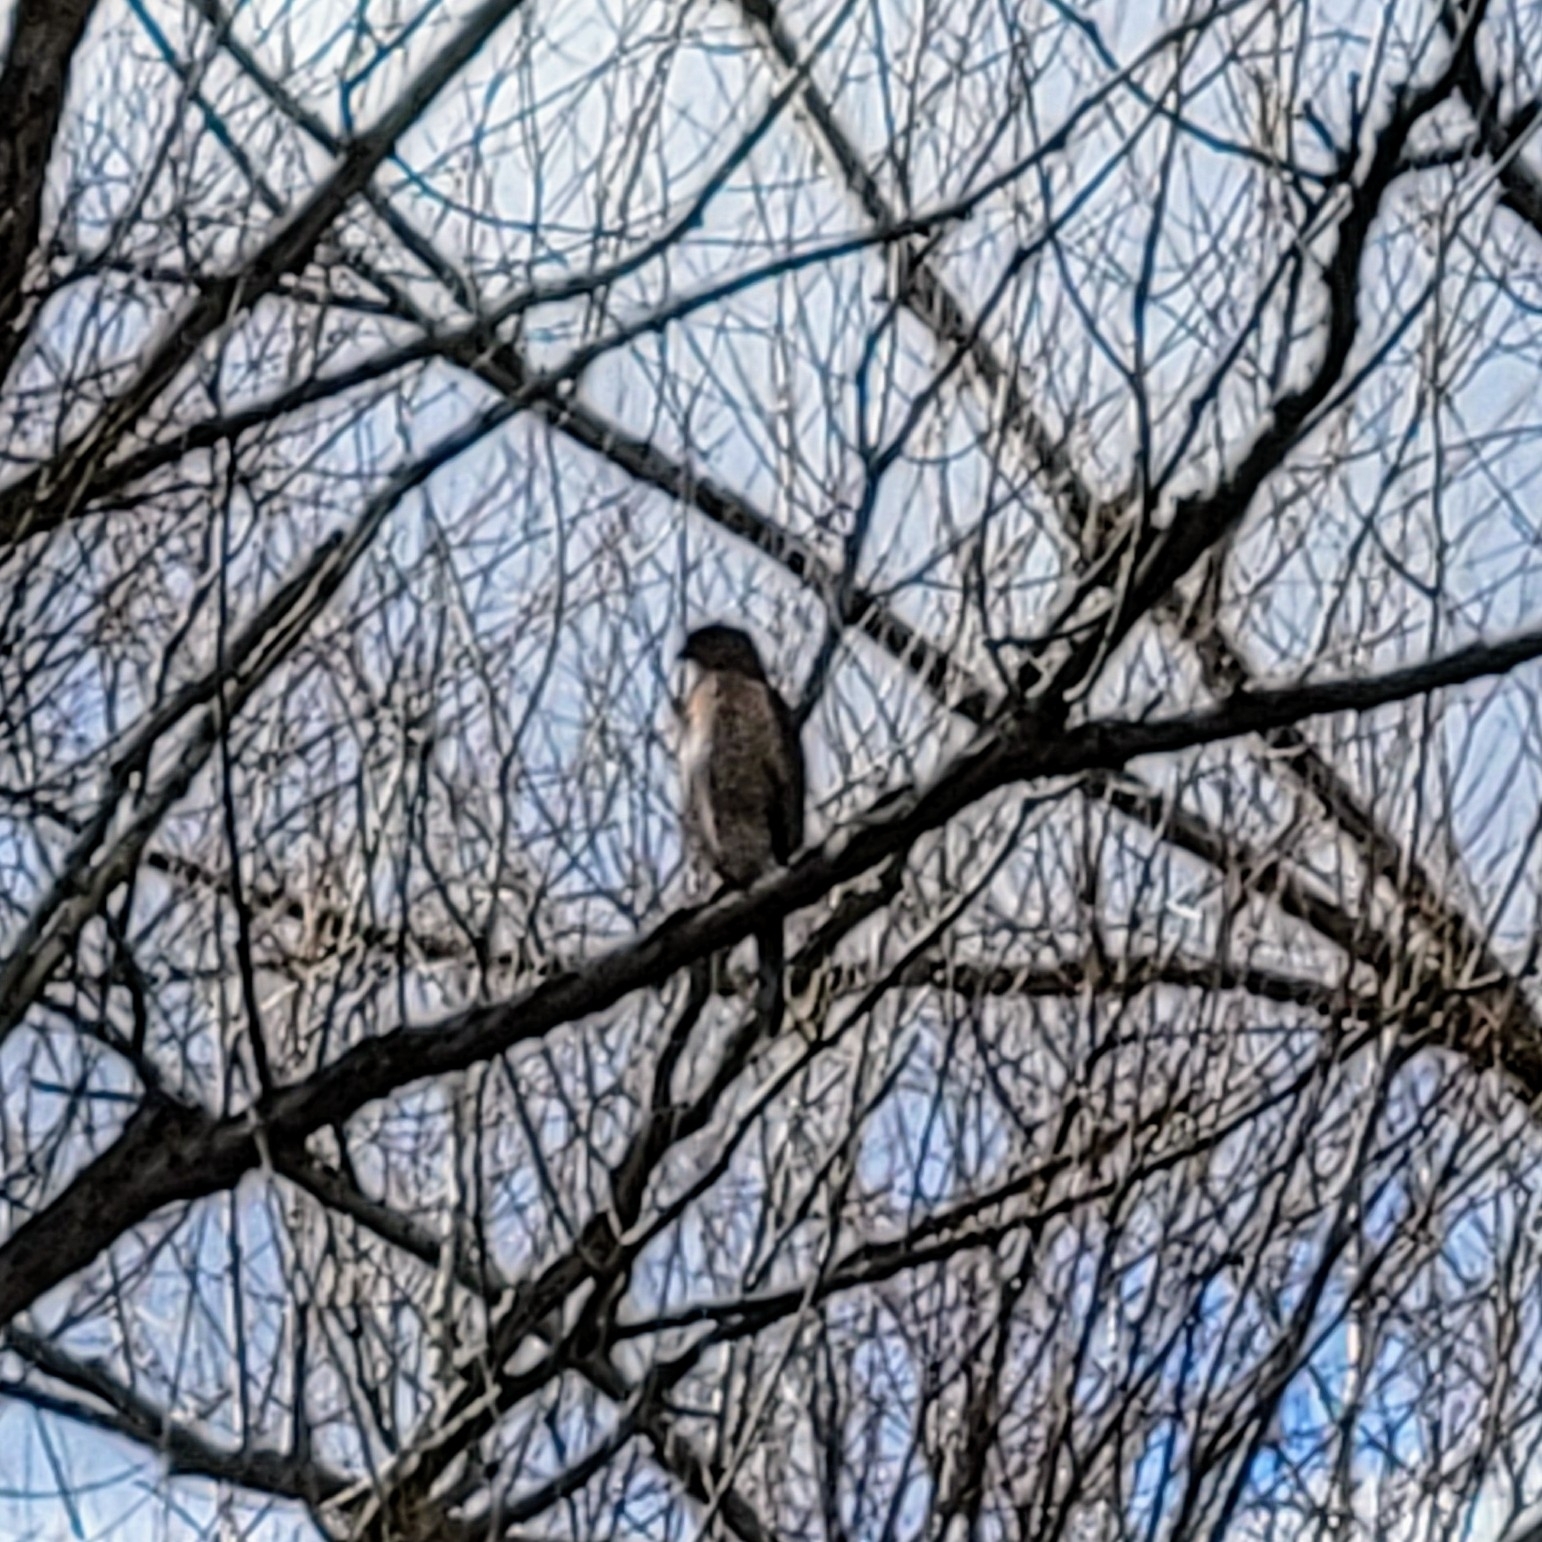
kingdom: Animalia
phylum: Chordata
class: Aves
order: Accipitriformes
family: Accipitridae
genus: Accipiter
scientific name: Accipiter cooperii
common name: Cooper's hawk
